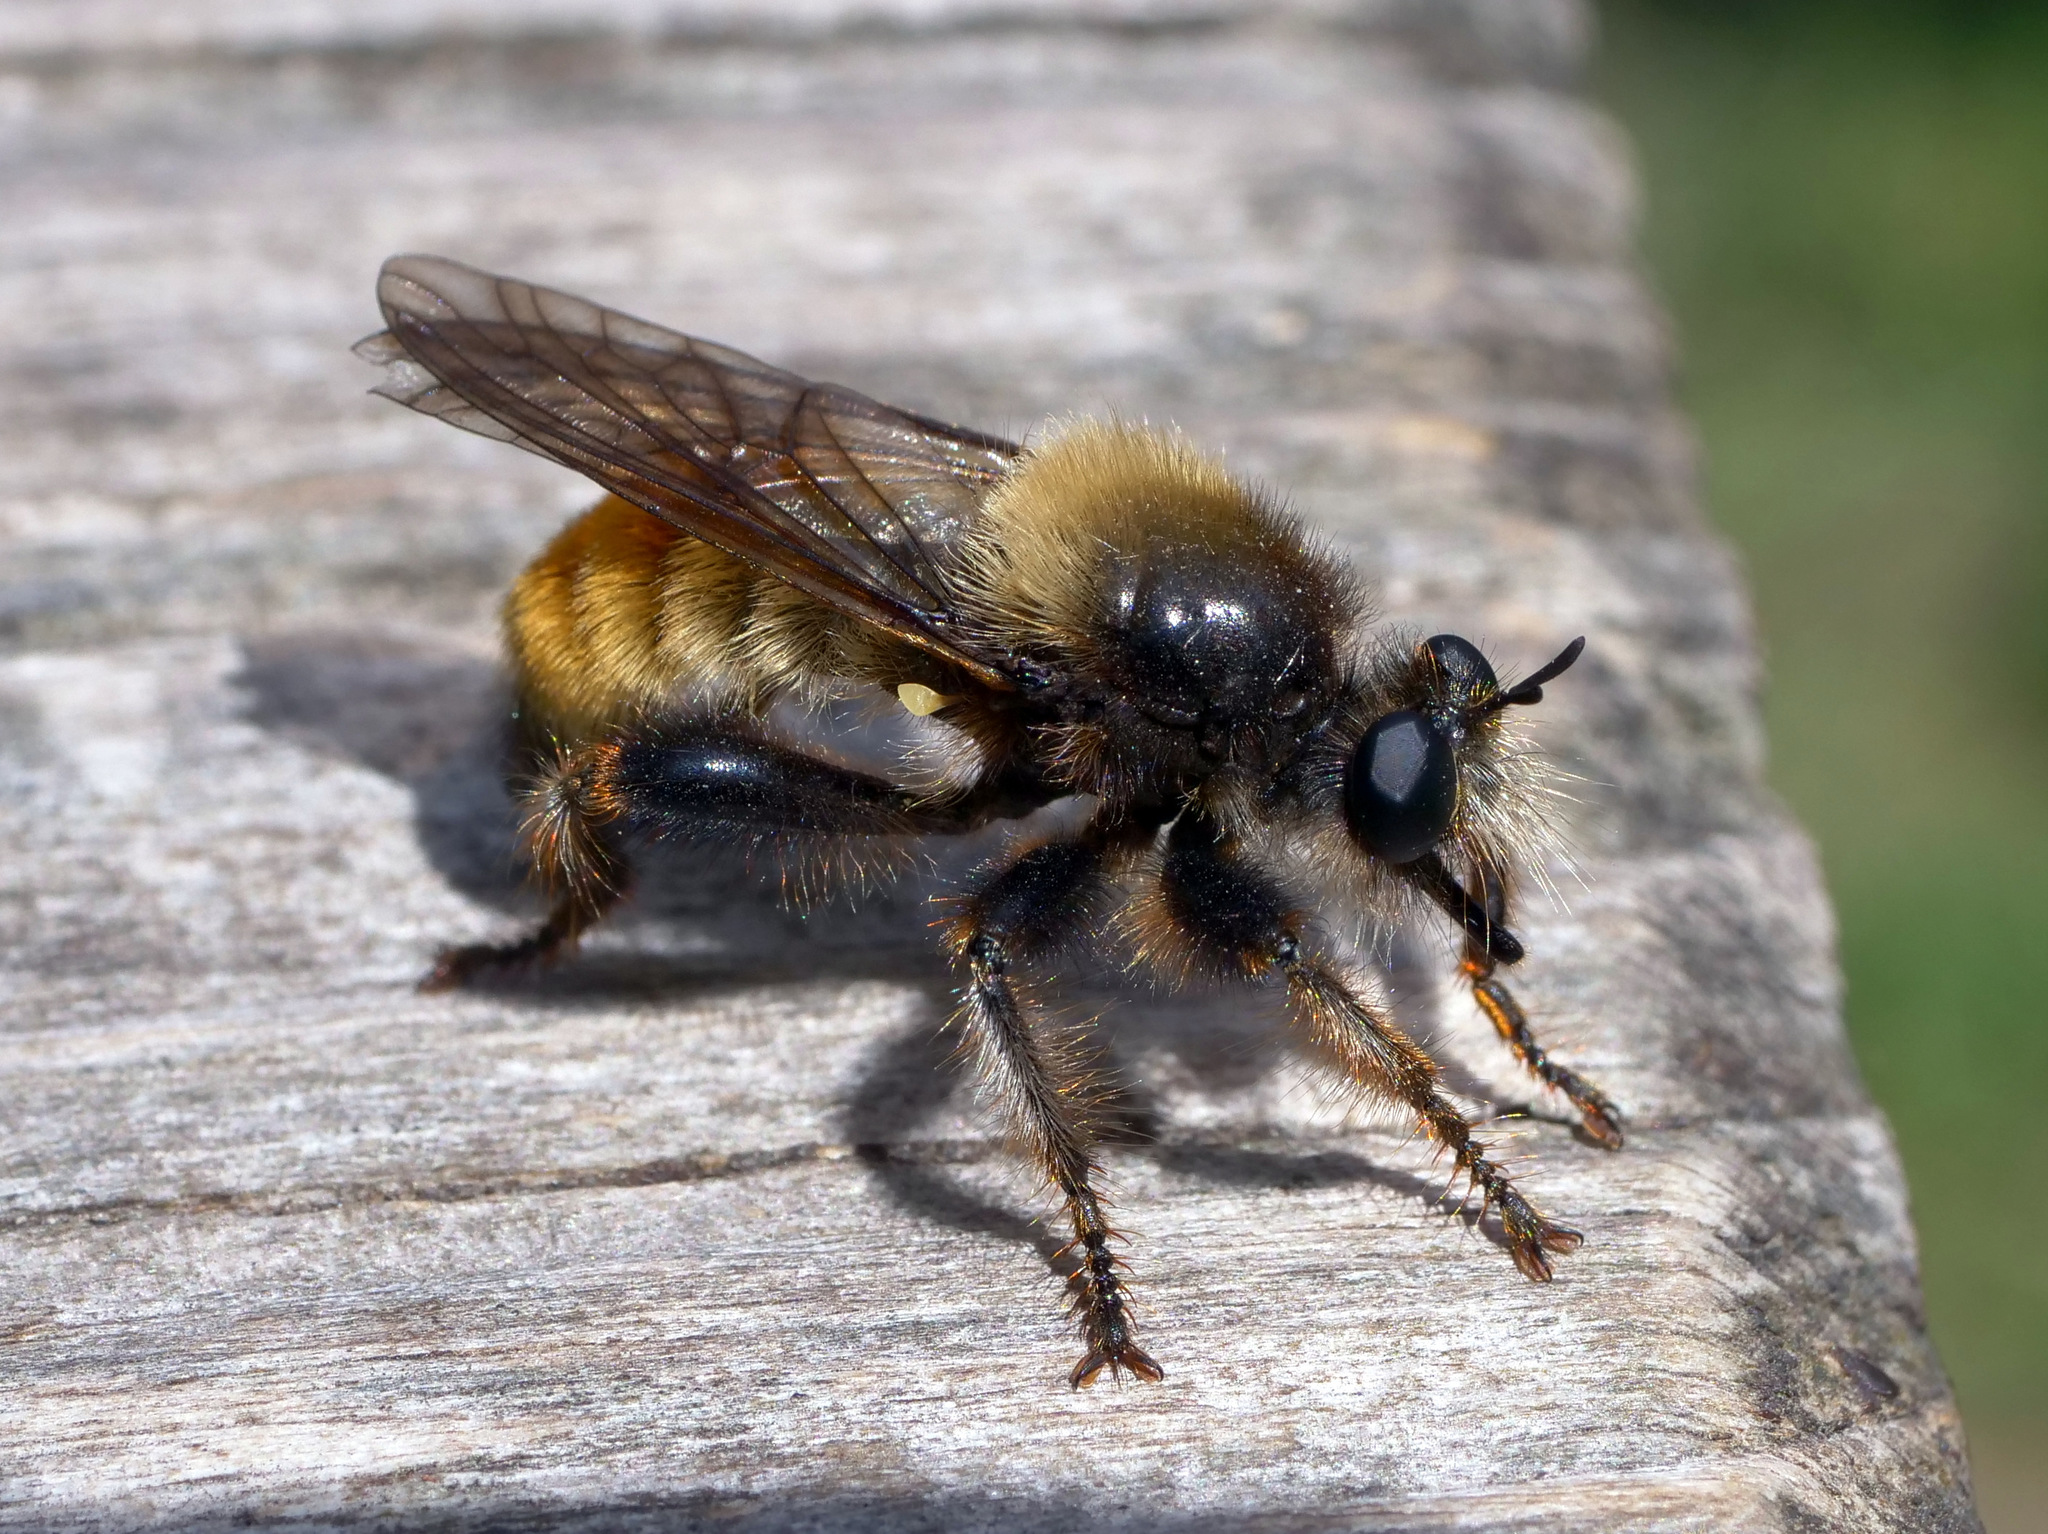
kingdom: Animalia
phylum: Arthropoda
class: Insecta
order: Diptera
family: Asilidae
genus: Laphria
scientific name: Laphria flava
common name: Bumblebee robberfly
